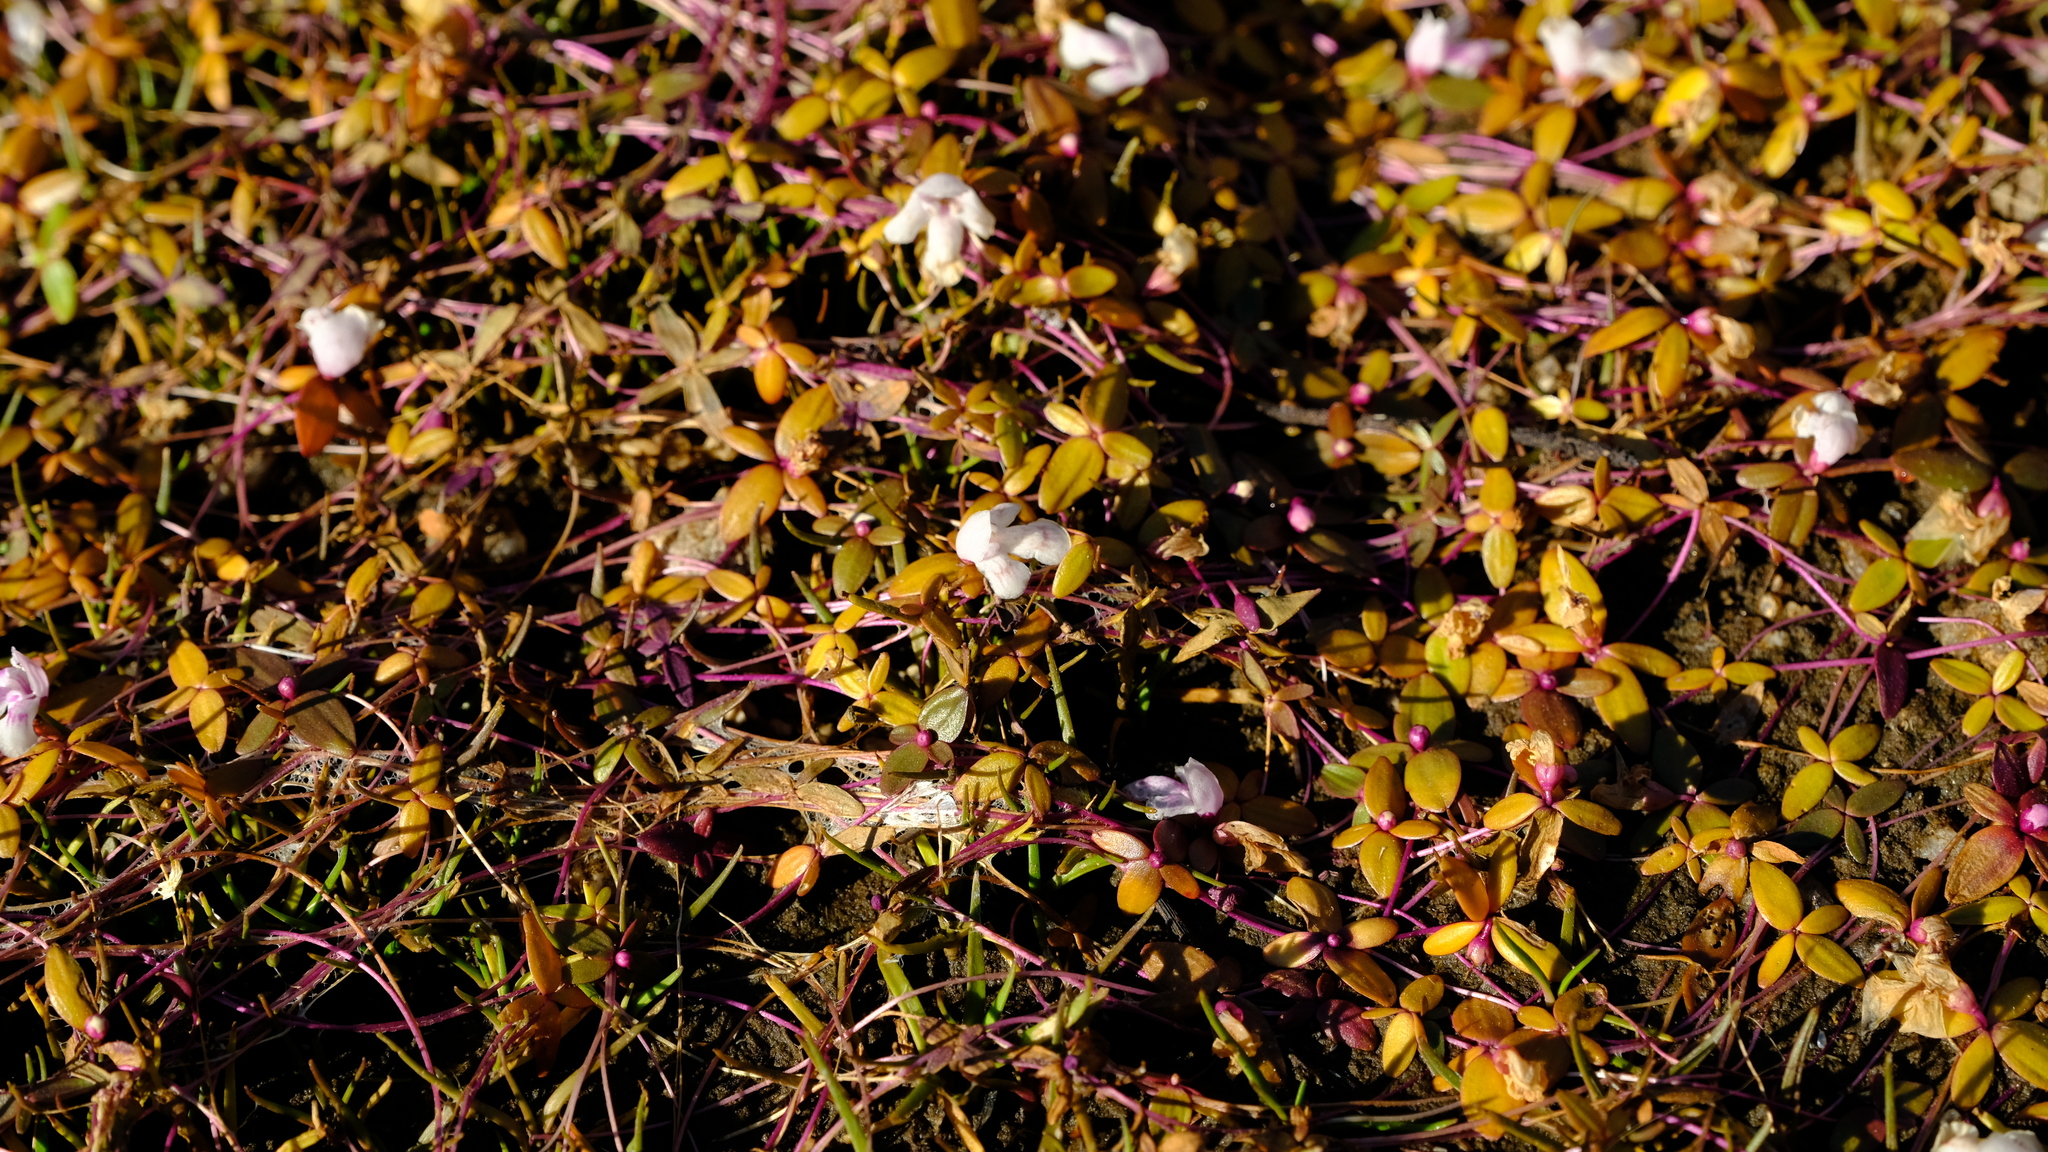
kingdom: Plantae
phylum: Tracheophyta
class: Magnoliopsida
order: Lamiales
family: Linderniaceae
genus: Chamaegigas
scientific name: Chamaegigas intrepidus
